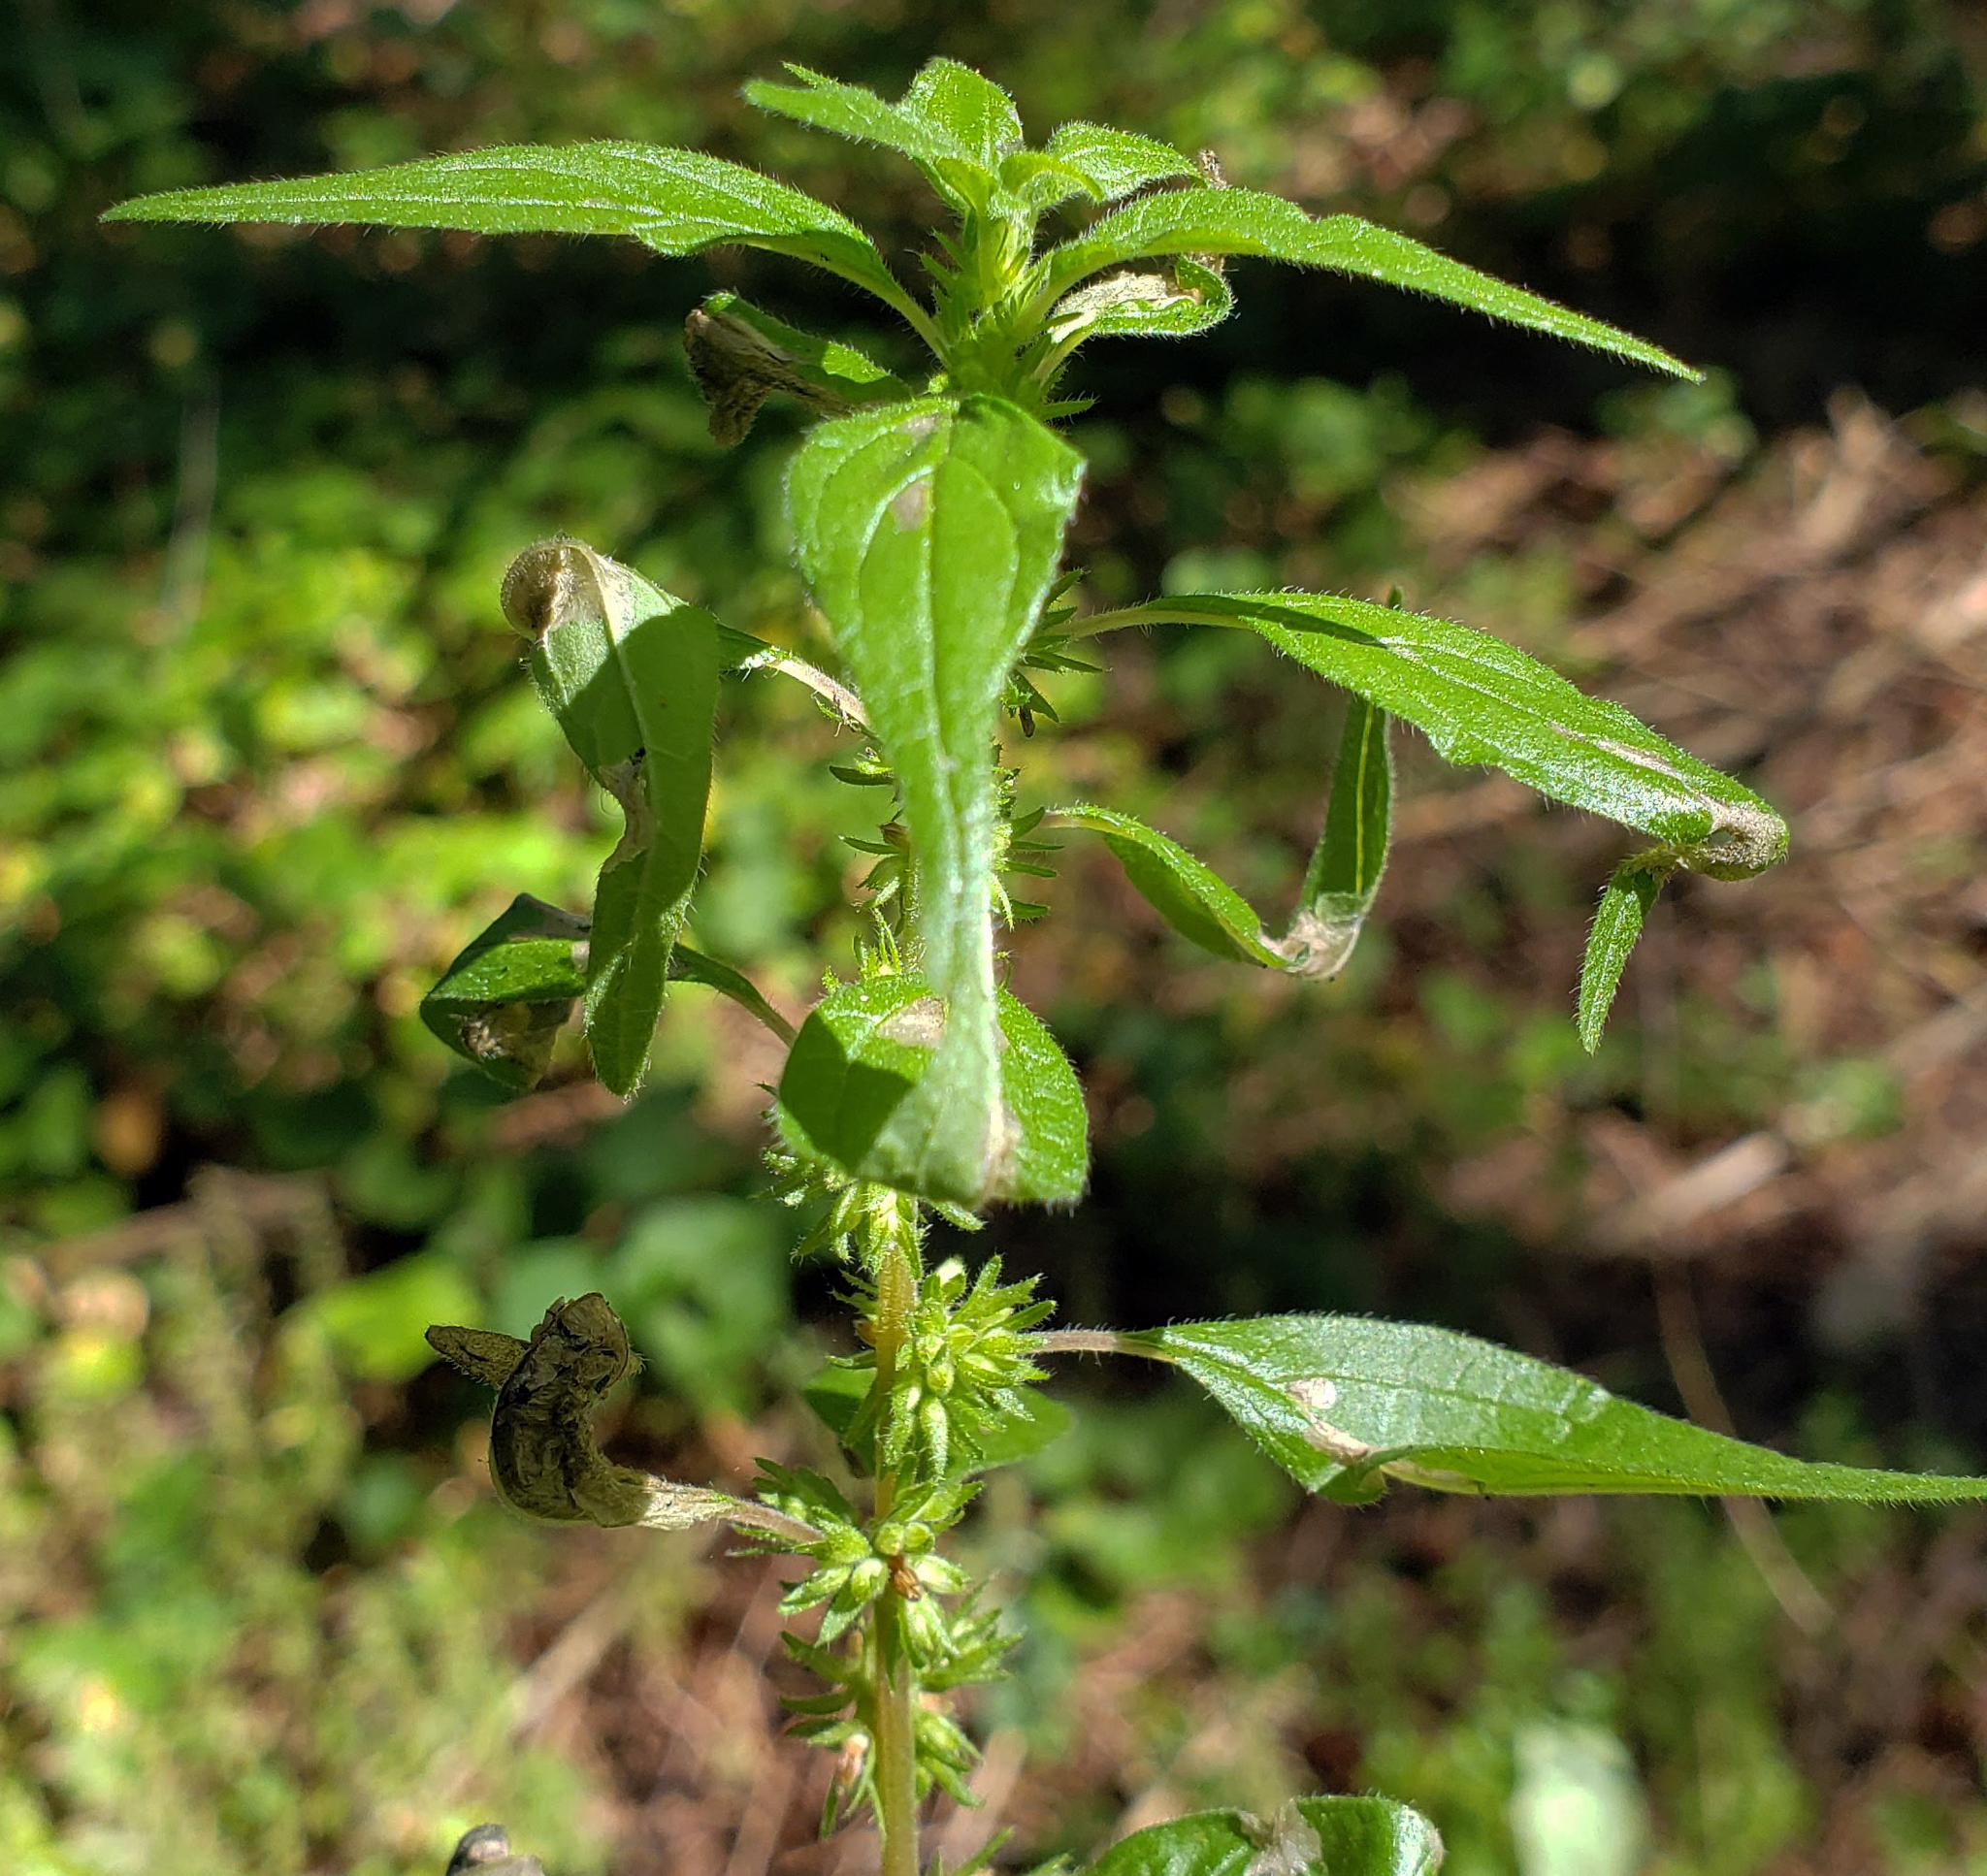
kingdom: Plantae
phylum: Tracheophyta
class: Magnoliopsida
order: Rosales
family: Urticaceae
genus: Parietaria
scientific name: Parietaria pensylvanica
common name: Pennsylvania pellitory
